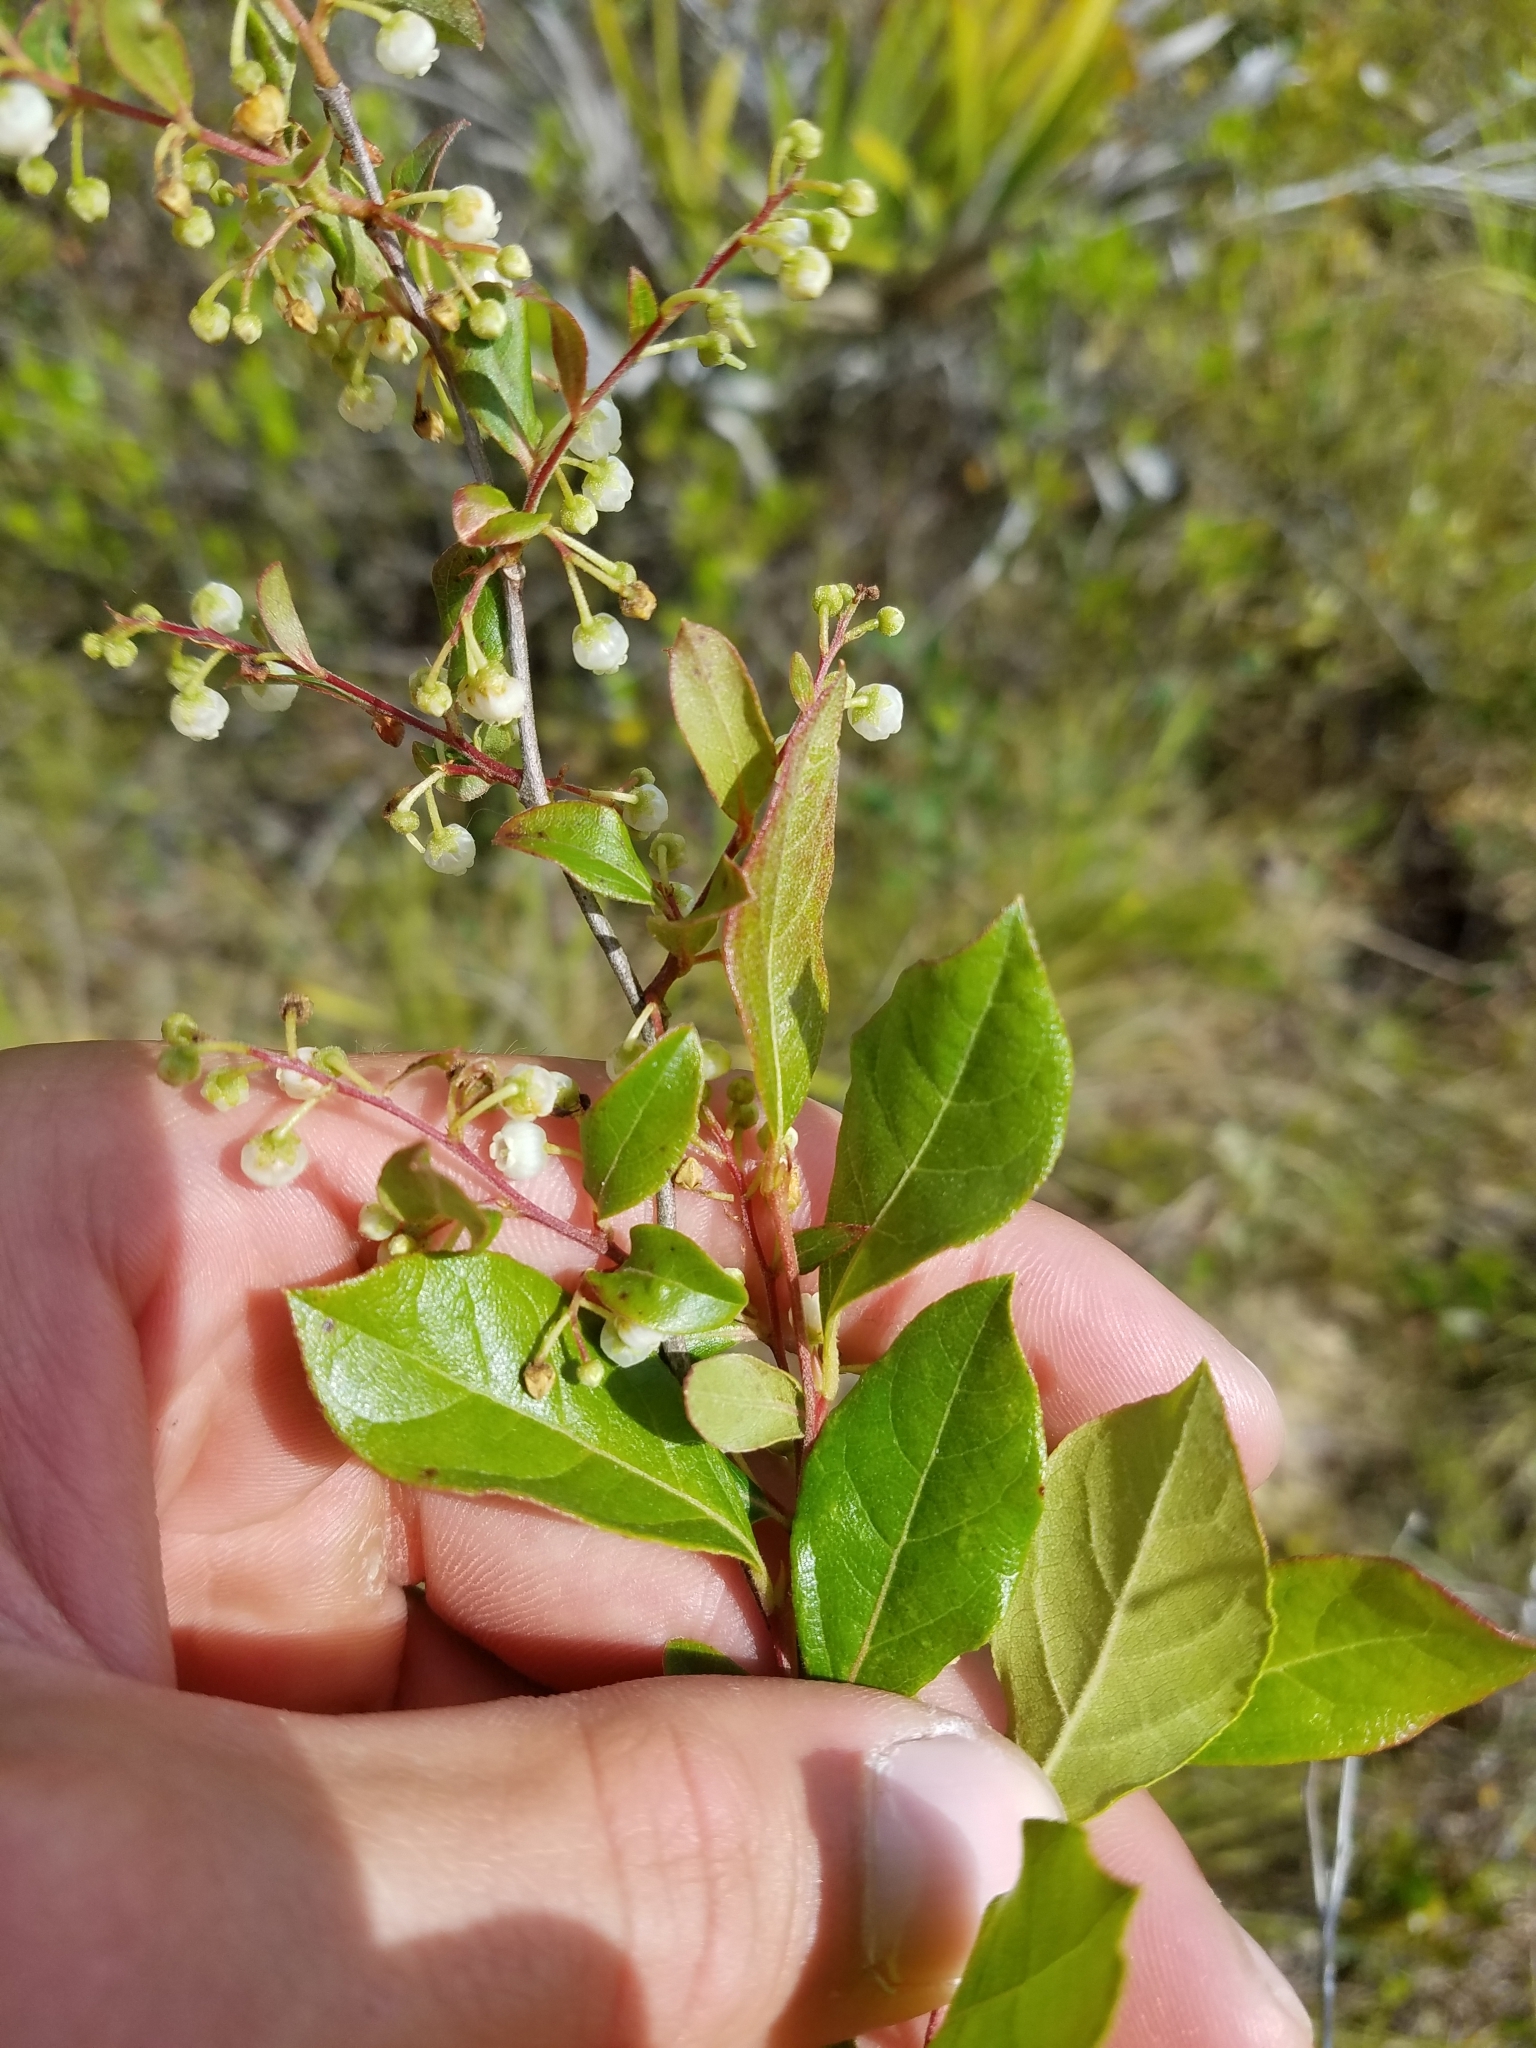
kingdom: Plantae
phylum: Tracheophyta
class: Magnoliopsida
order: Ericales
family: Ericaceae
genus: Lyonia
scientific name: Lyonia ligustrina
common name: Maleberry
